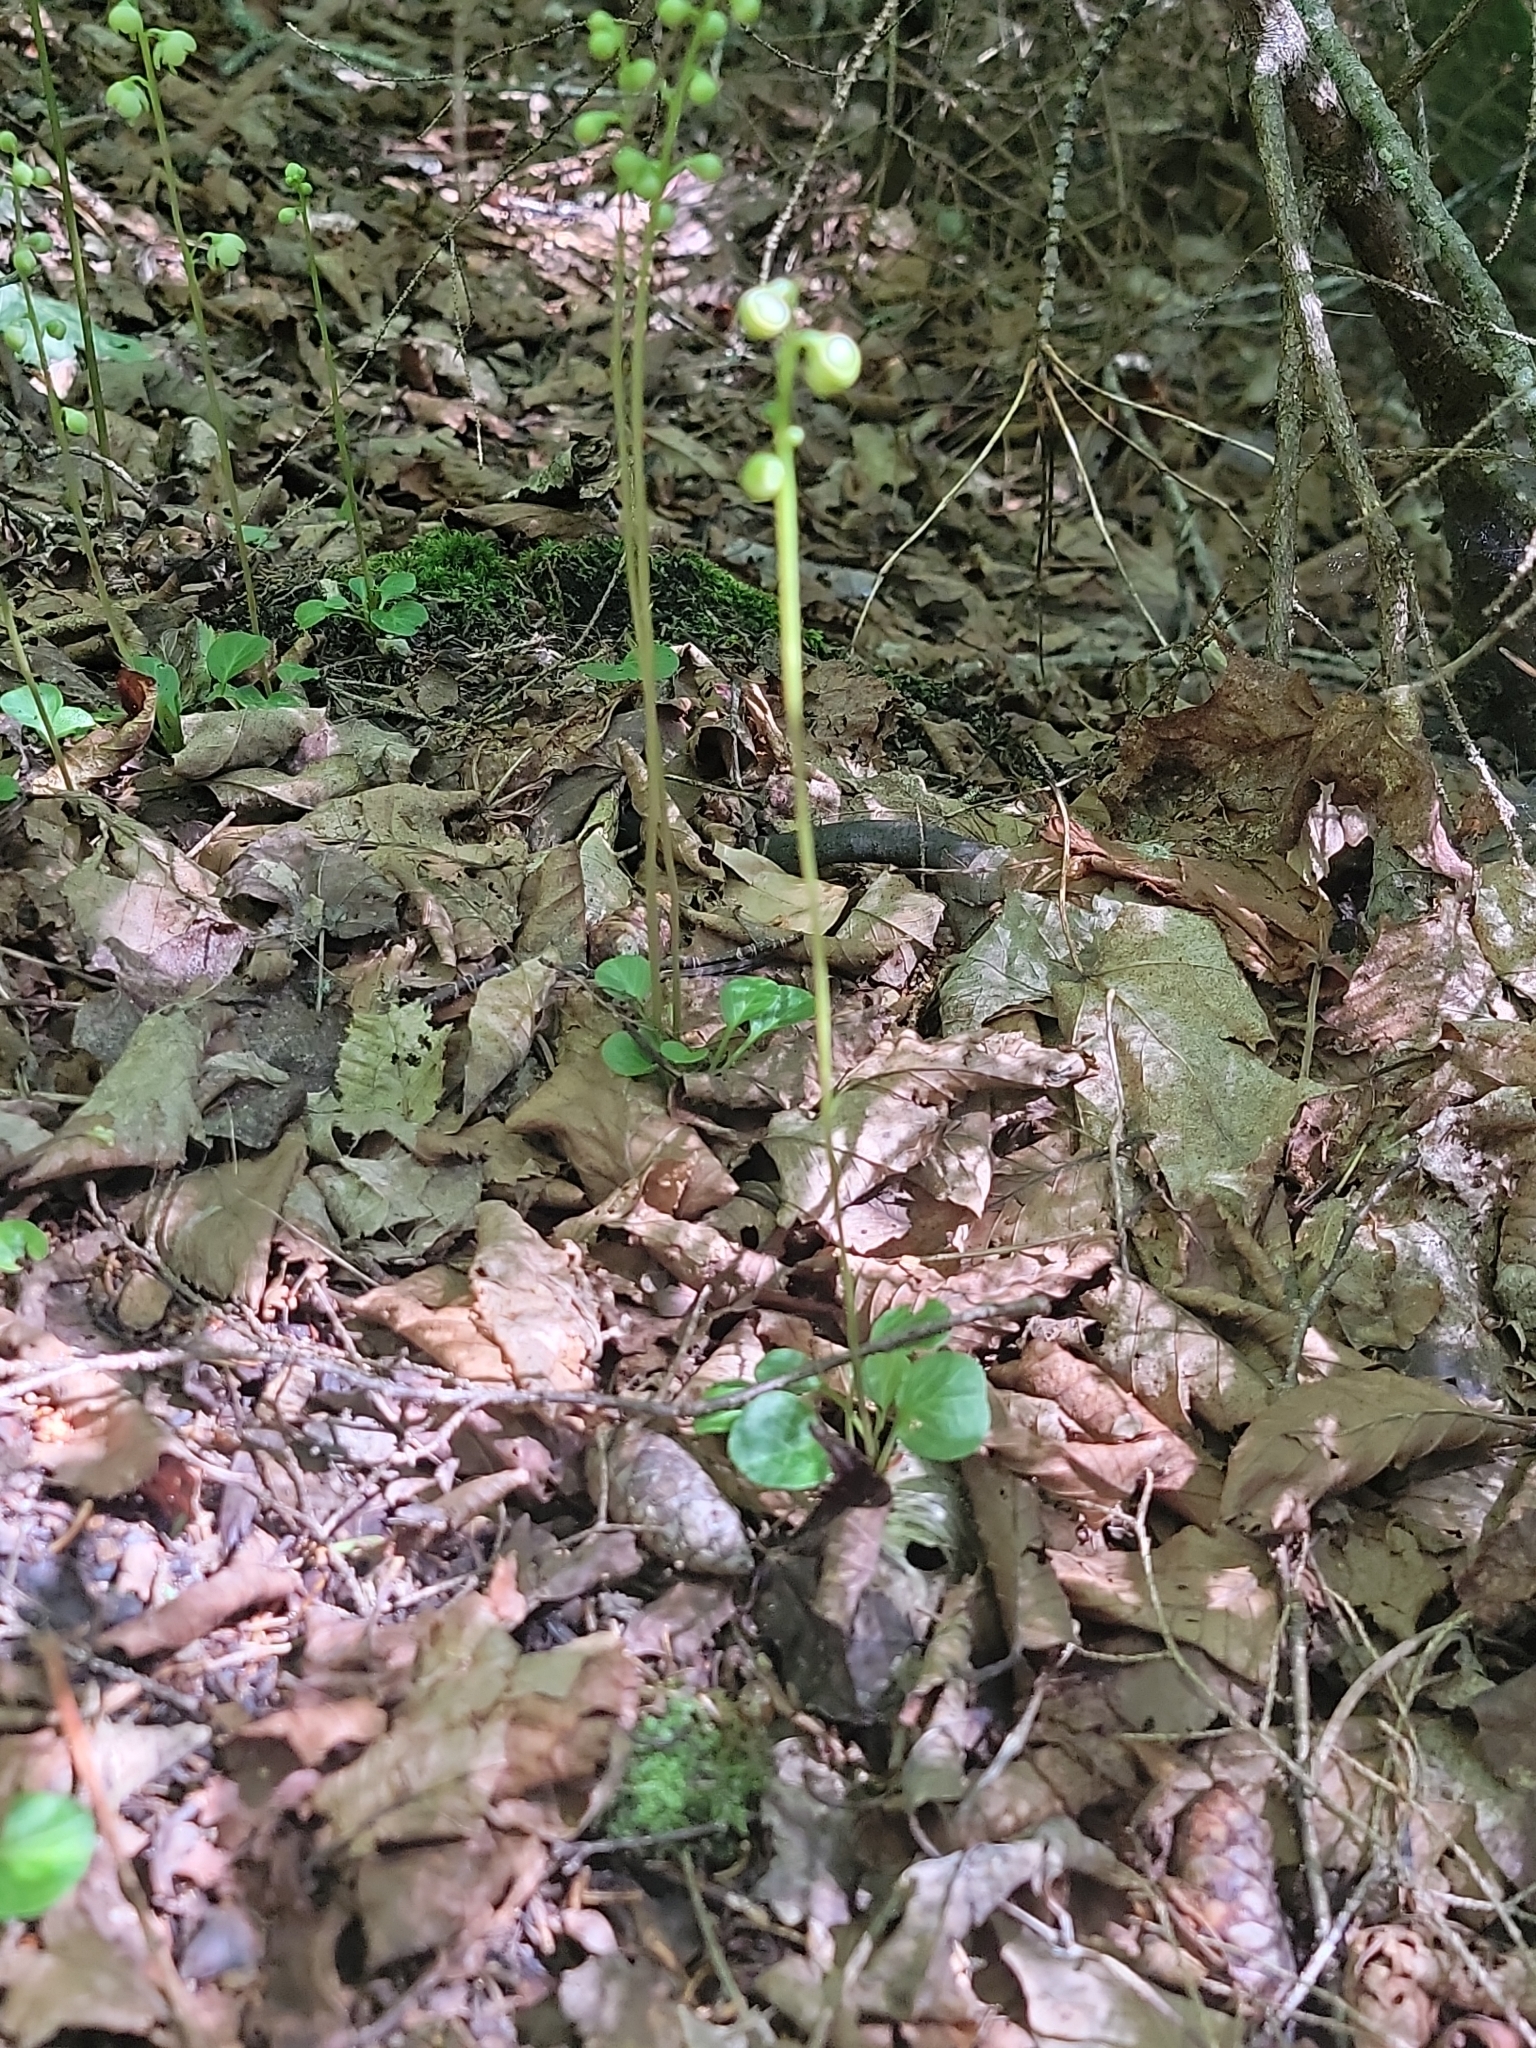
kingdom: Plantae
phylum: Tracheophyta
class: Magnoliopsida
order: Ericales
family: Ericaceae
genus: Pyrola
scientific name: Pyrola chlorantha
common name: Green wintergreen
